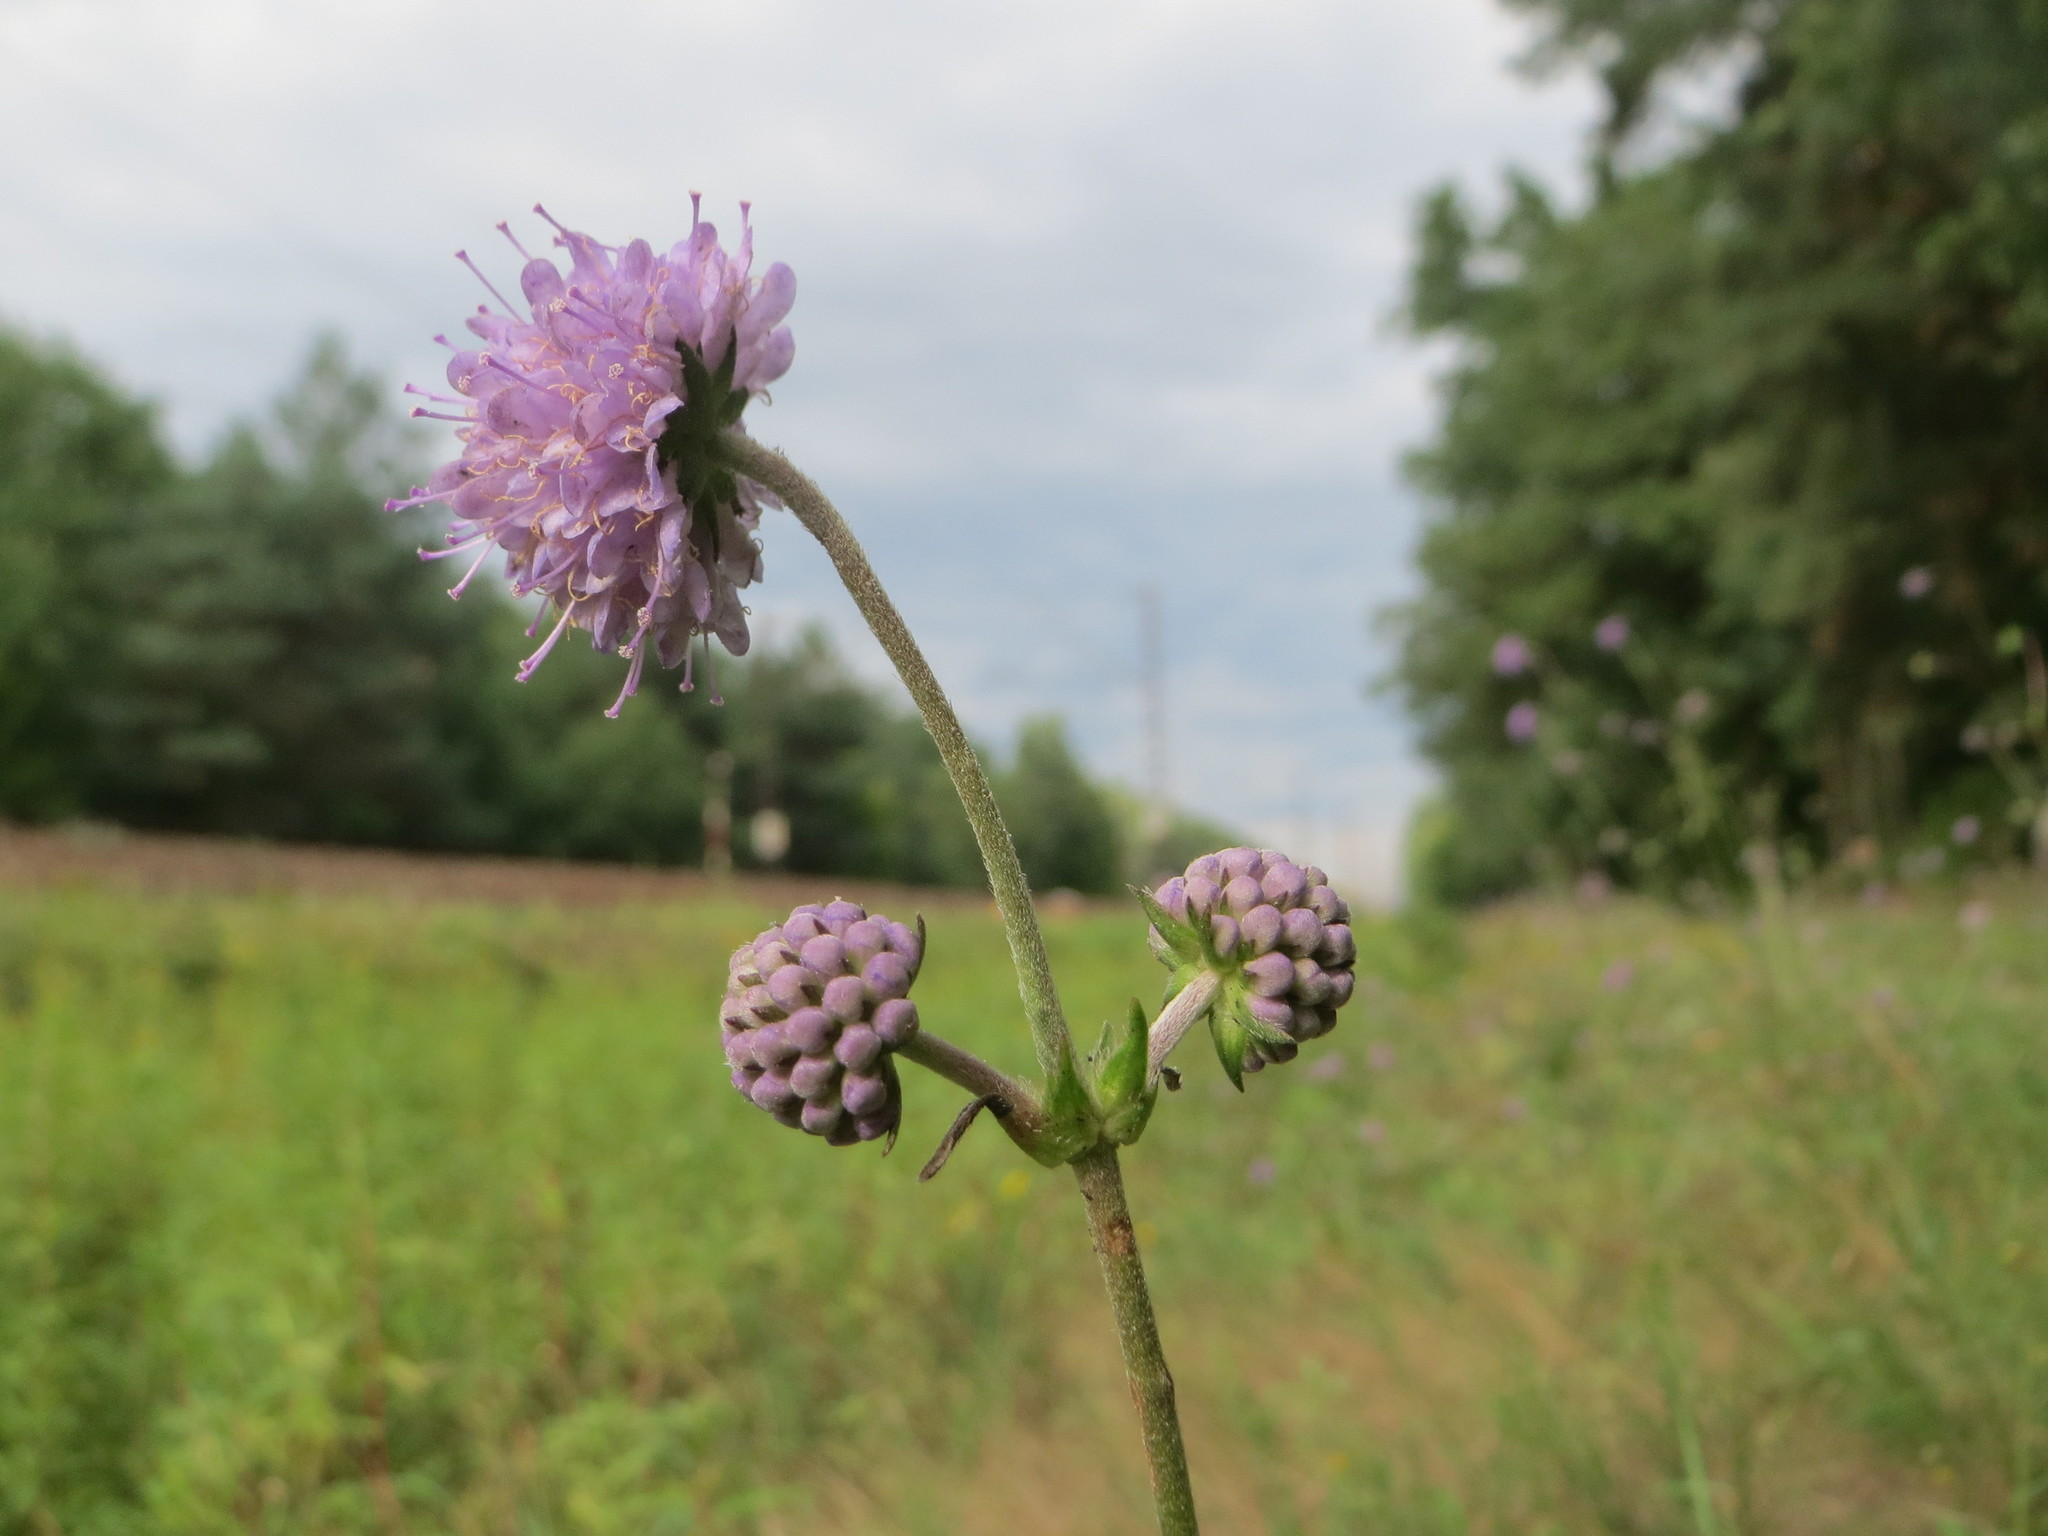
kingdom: Plantae
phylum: Tracheophyta
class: Magnoliopsida
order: Dipsacales
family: Caprifoliaceae
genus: Succisa
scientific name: Succisa pratensis
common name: Devil's-bit
